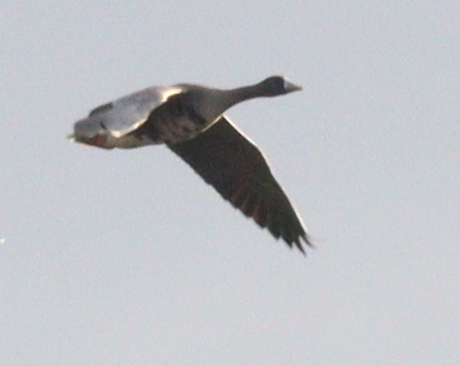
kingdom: Animalia
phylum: Chordata
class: Aves
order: Anseriformes
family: Anatidae
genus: Anser
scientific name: Anser albifrons
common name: Greater white-fronted goose
